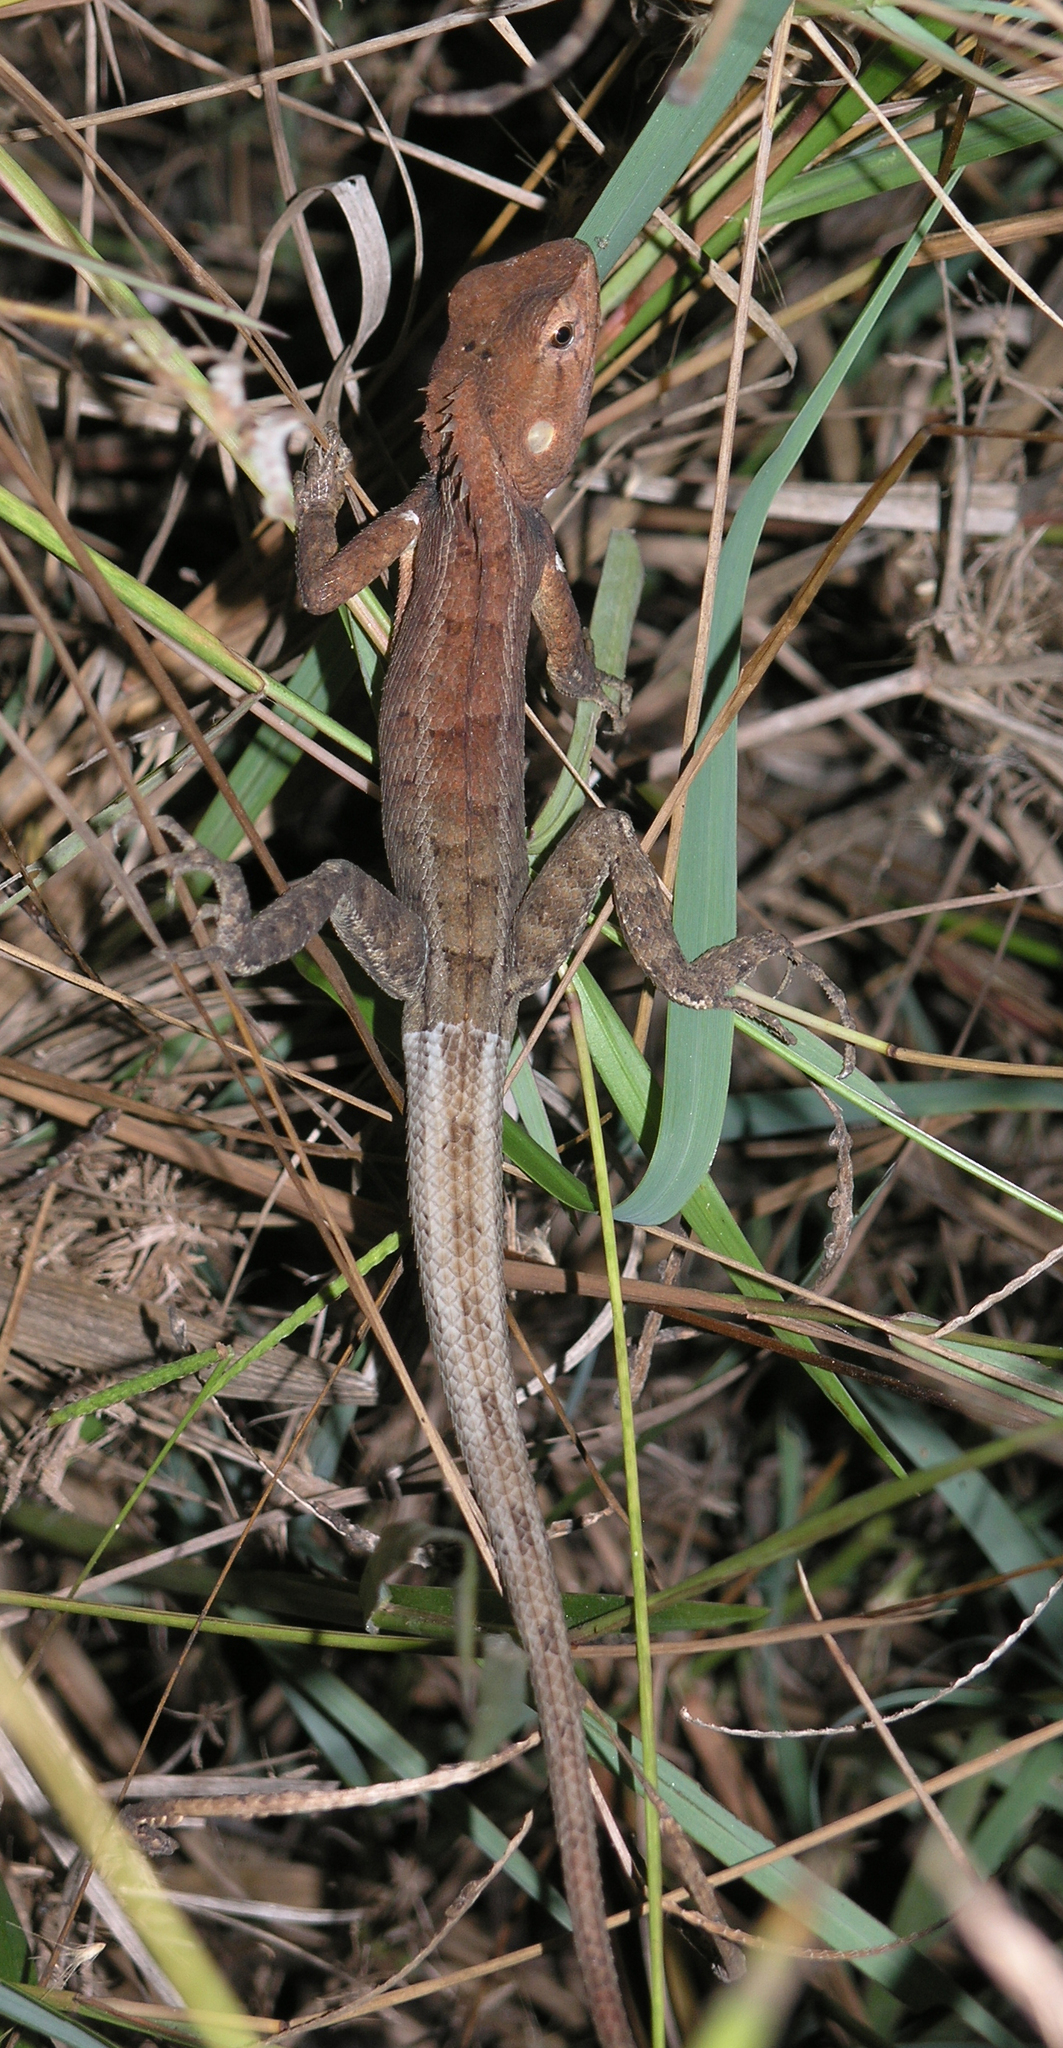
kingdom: Animalia
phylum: Chordata
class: Squamata
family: Agamidae
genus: Calotes
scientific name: Calotes versicolor
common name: Oriental garden lizard
